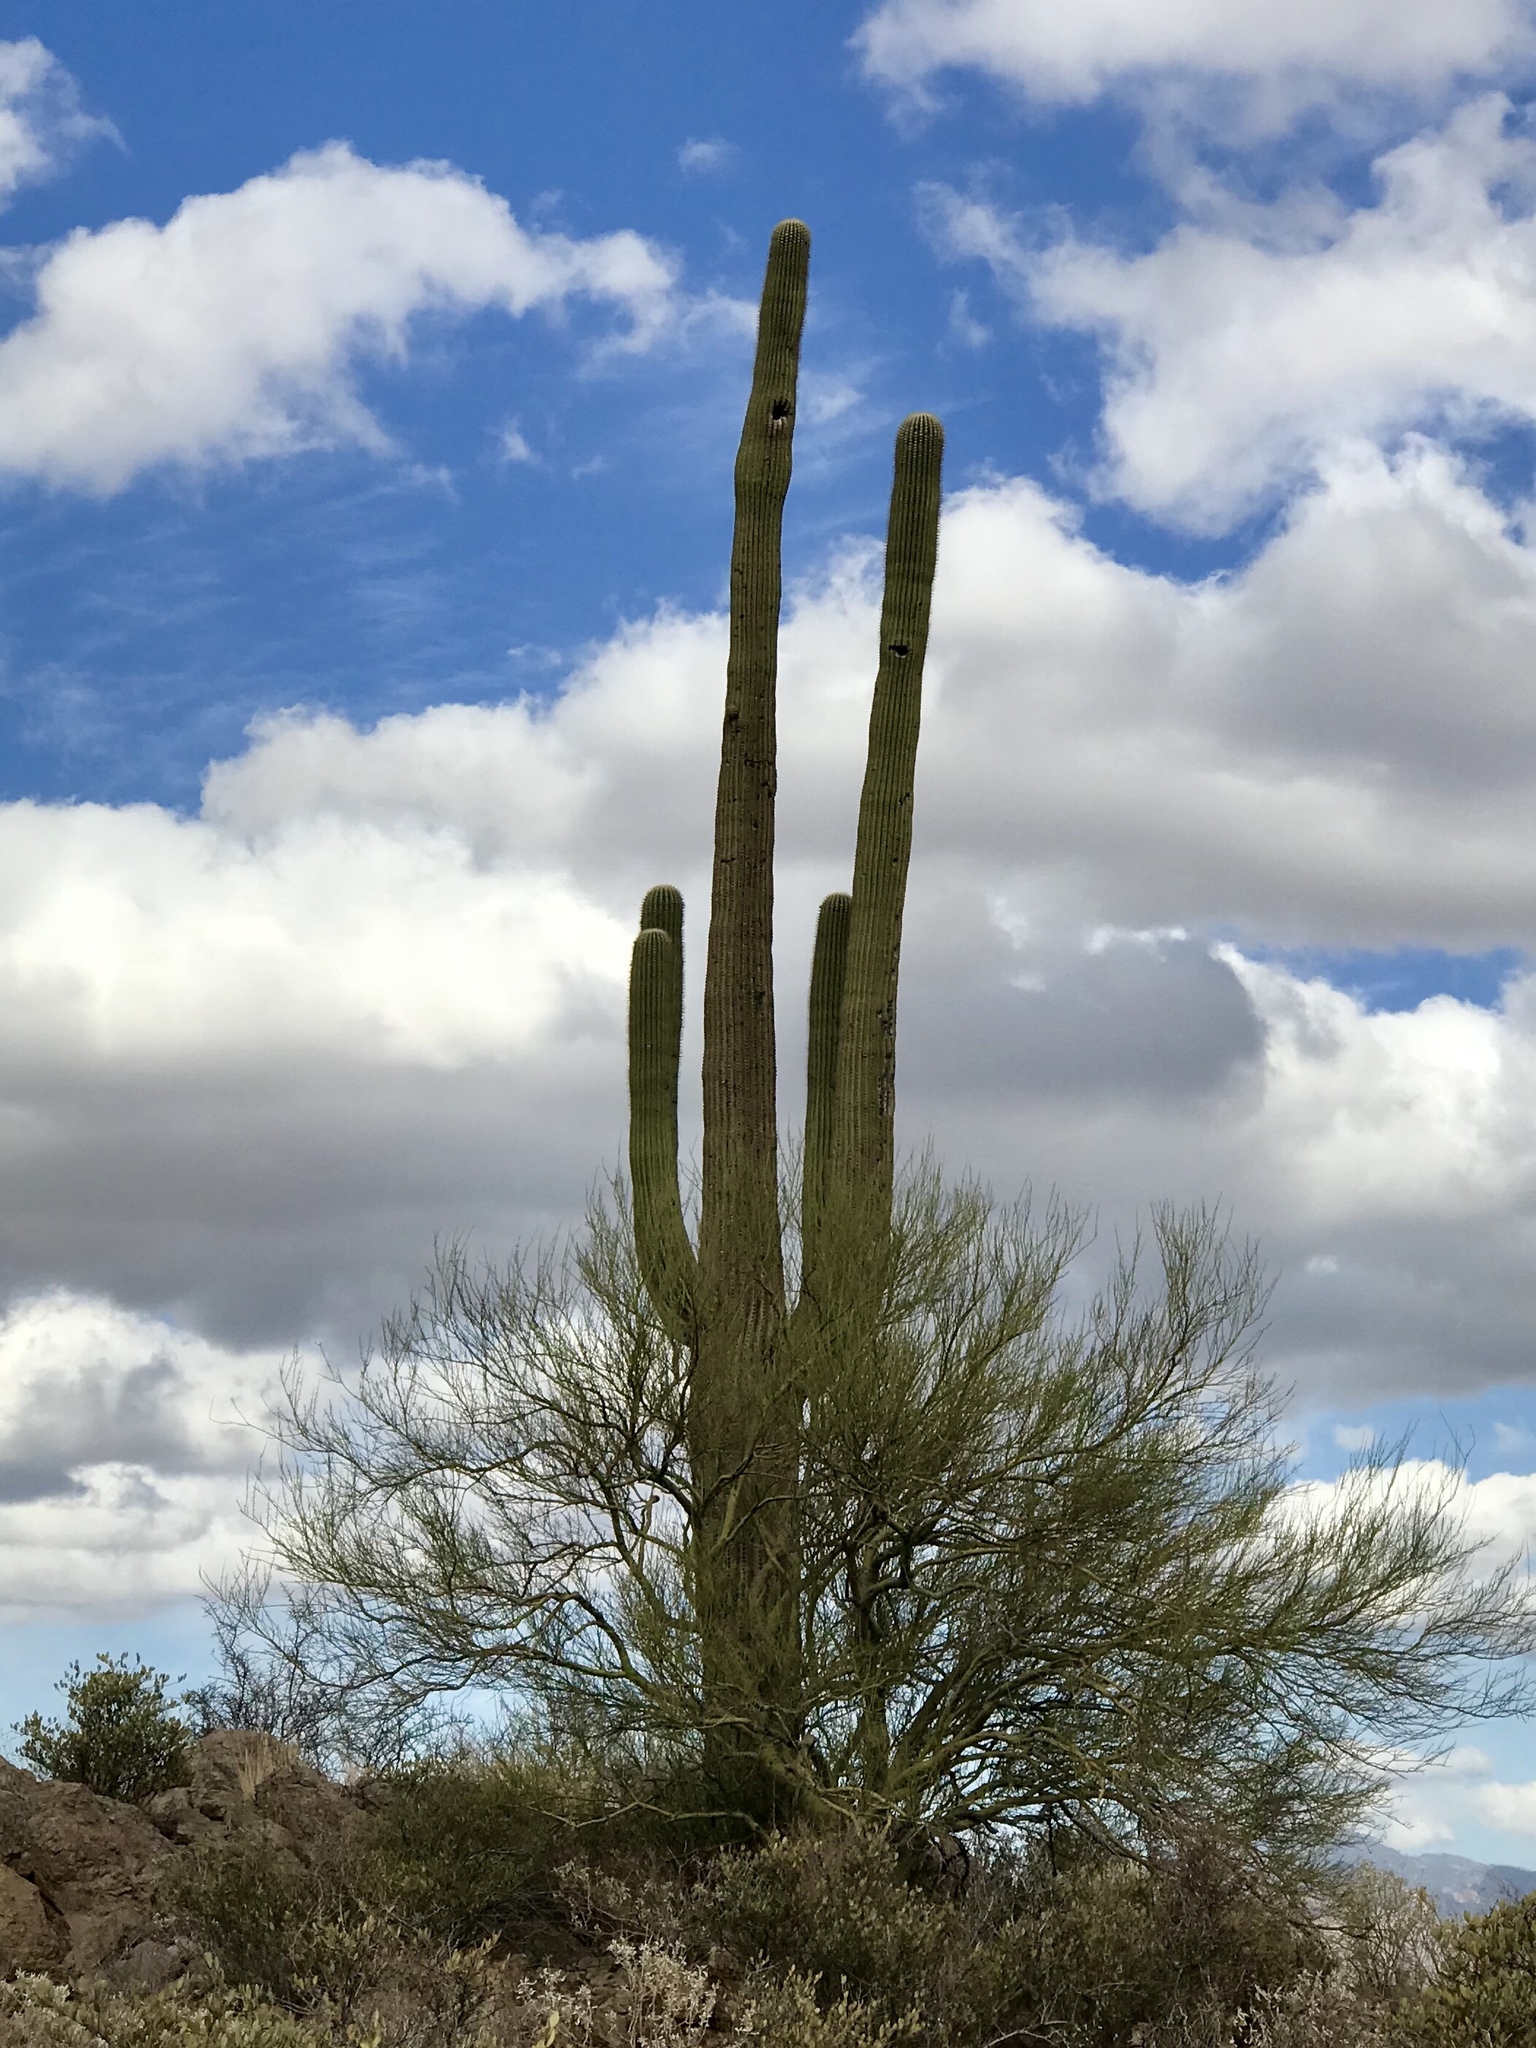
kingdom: Plantae
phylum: Tracheophyta
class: Magnoliopsida
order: Caryophyllales
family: Cactaceae
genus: Carnegiea
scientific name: Carnegiea gigantea
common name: Saguaro
